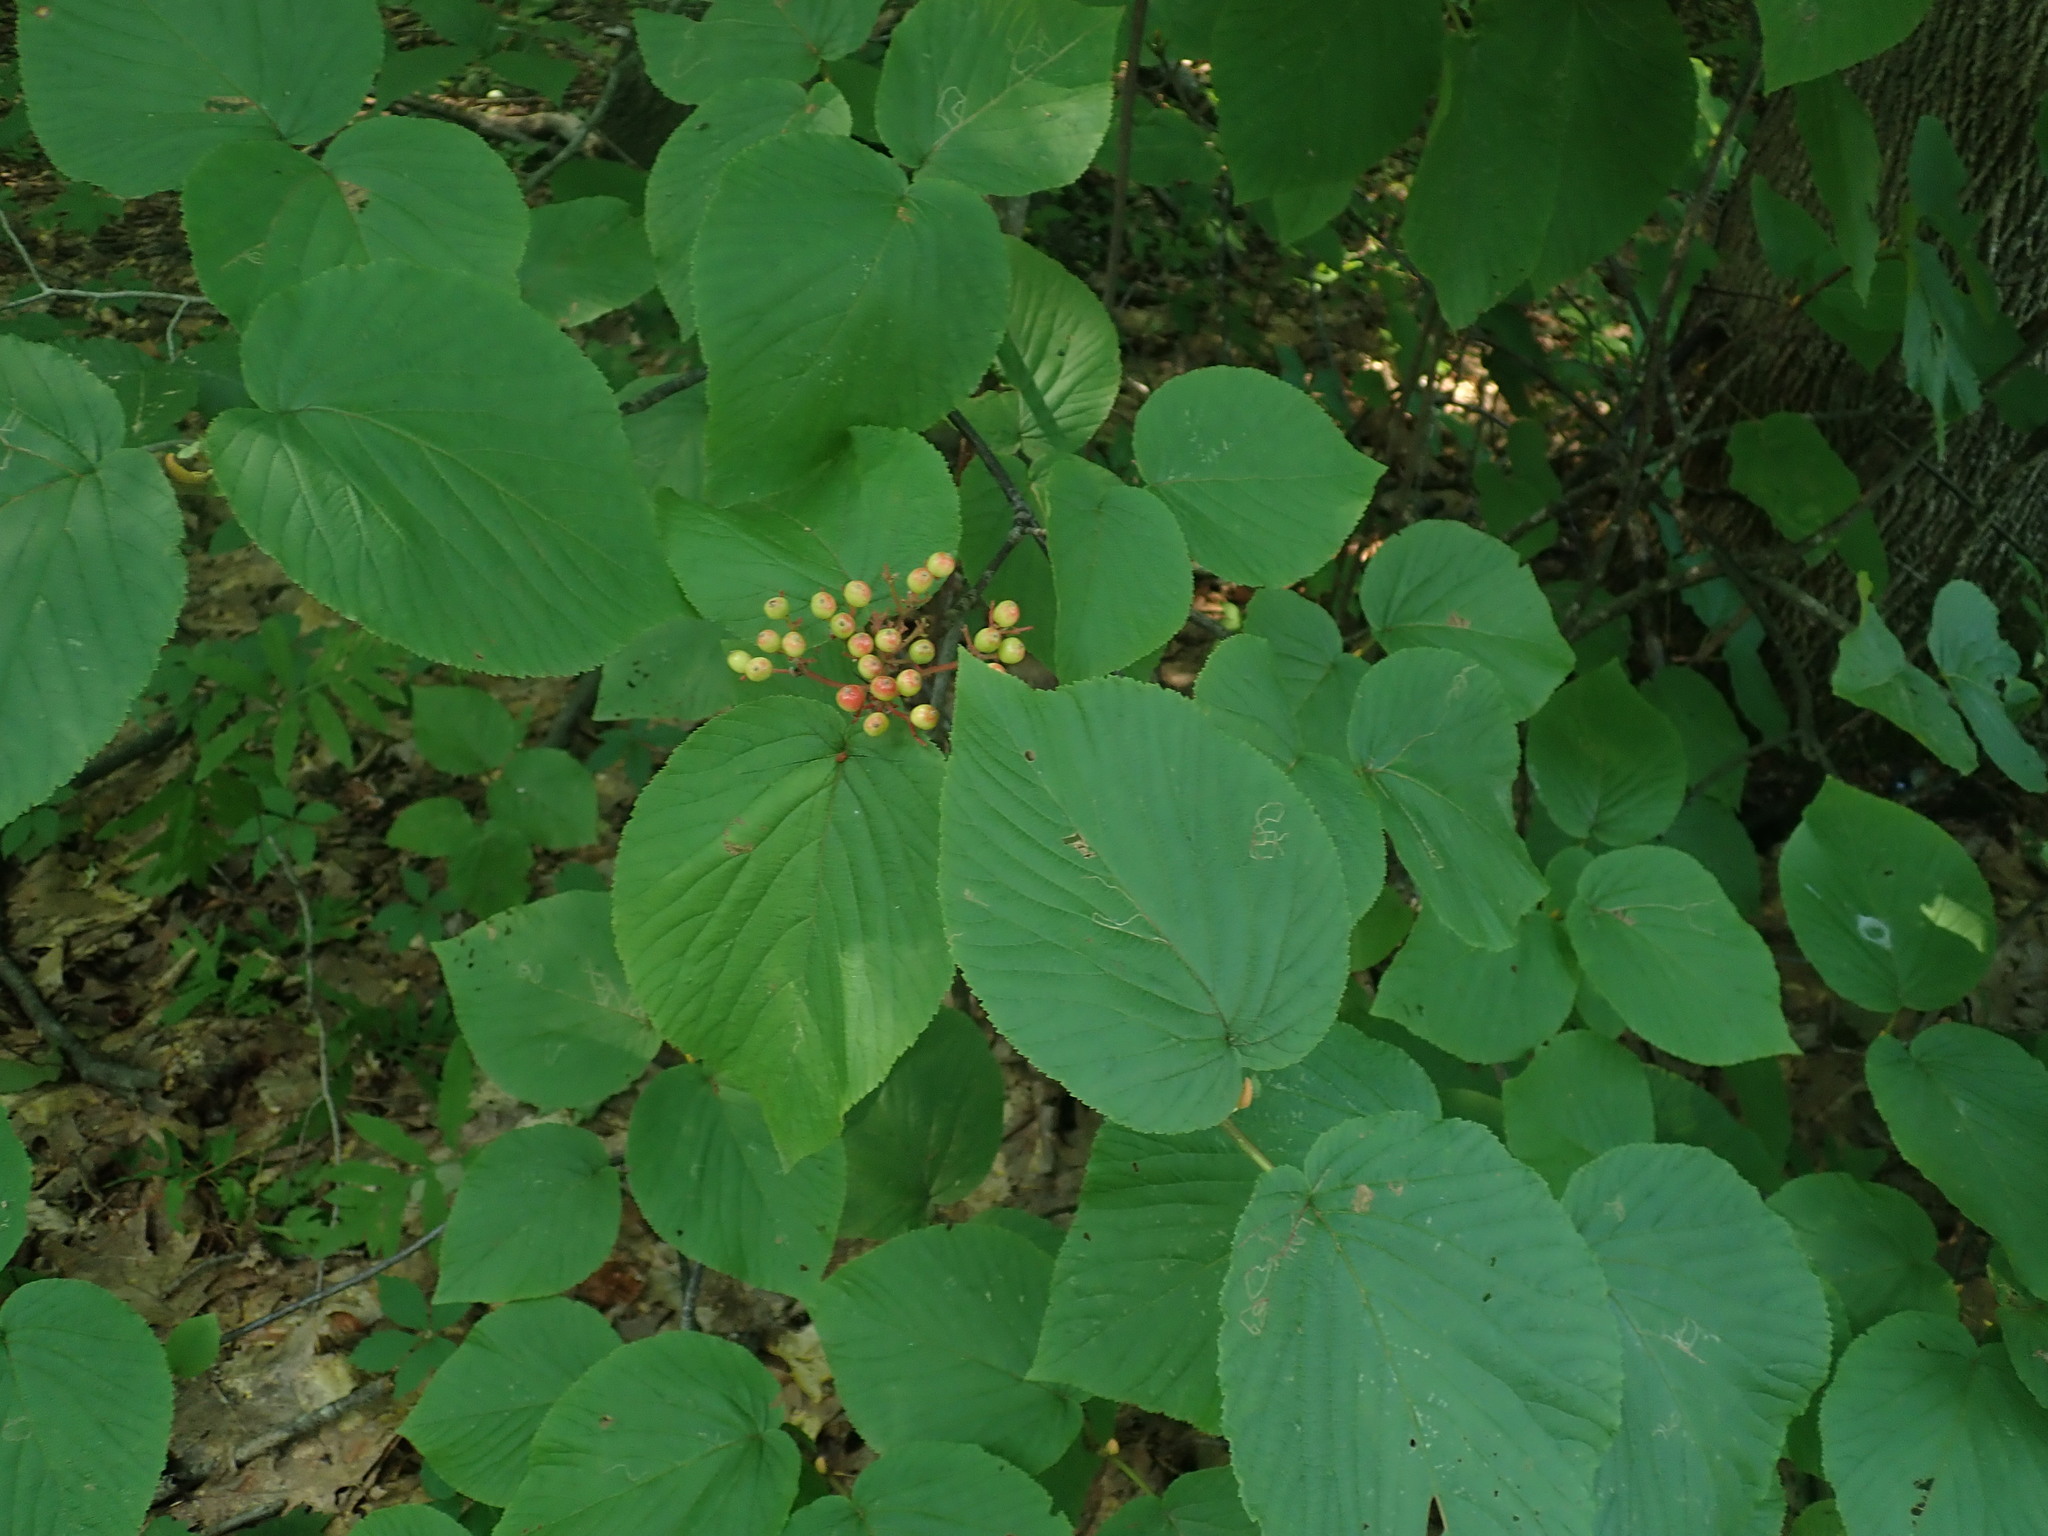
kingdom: Plantae
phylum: Tracheophyta
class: Magnoliopsida
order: Dipsacales
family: Viburnaceae
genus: Viburnum
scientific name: Viburnum lantanoides
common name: Hobblebush
